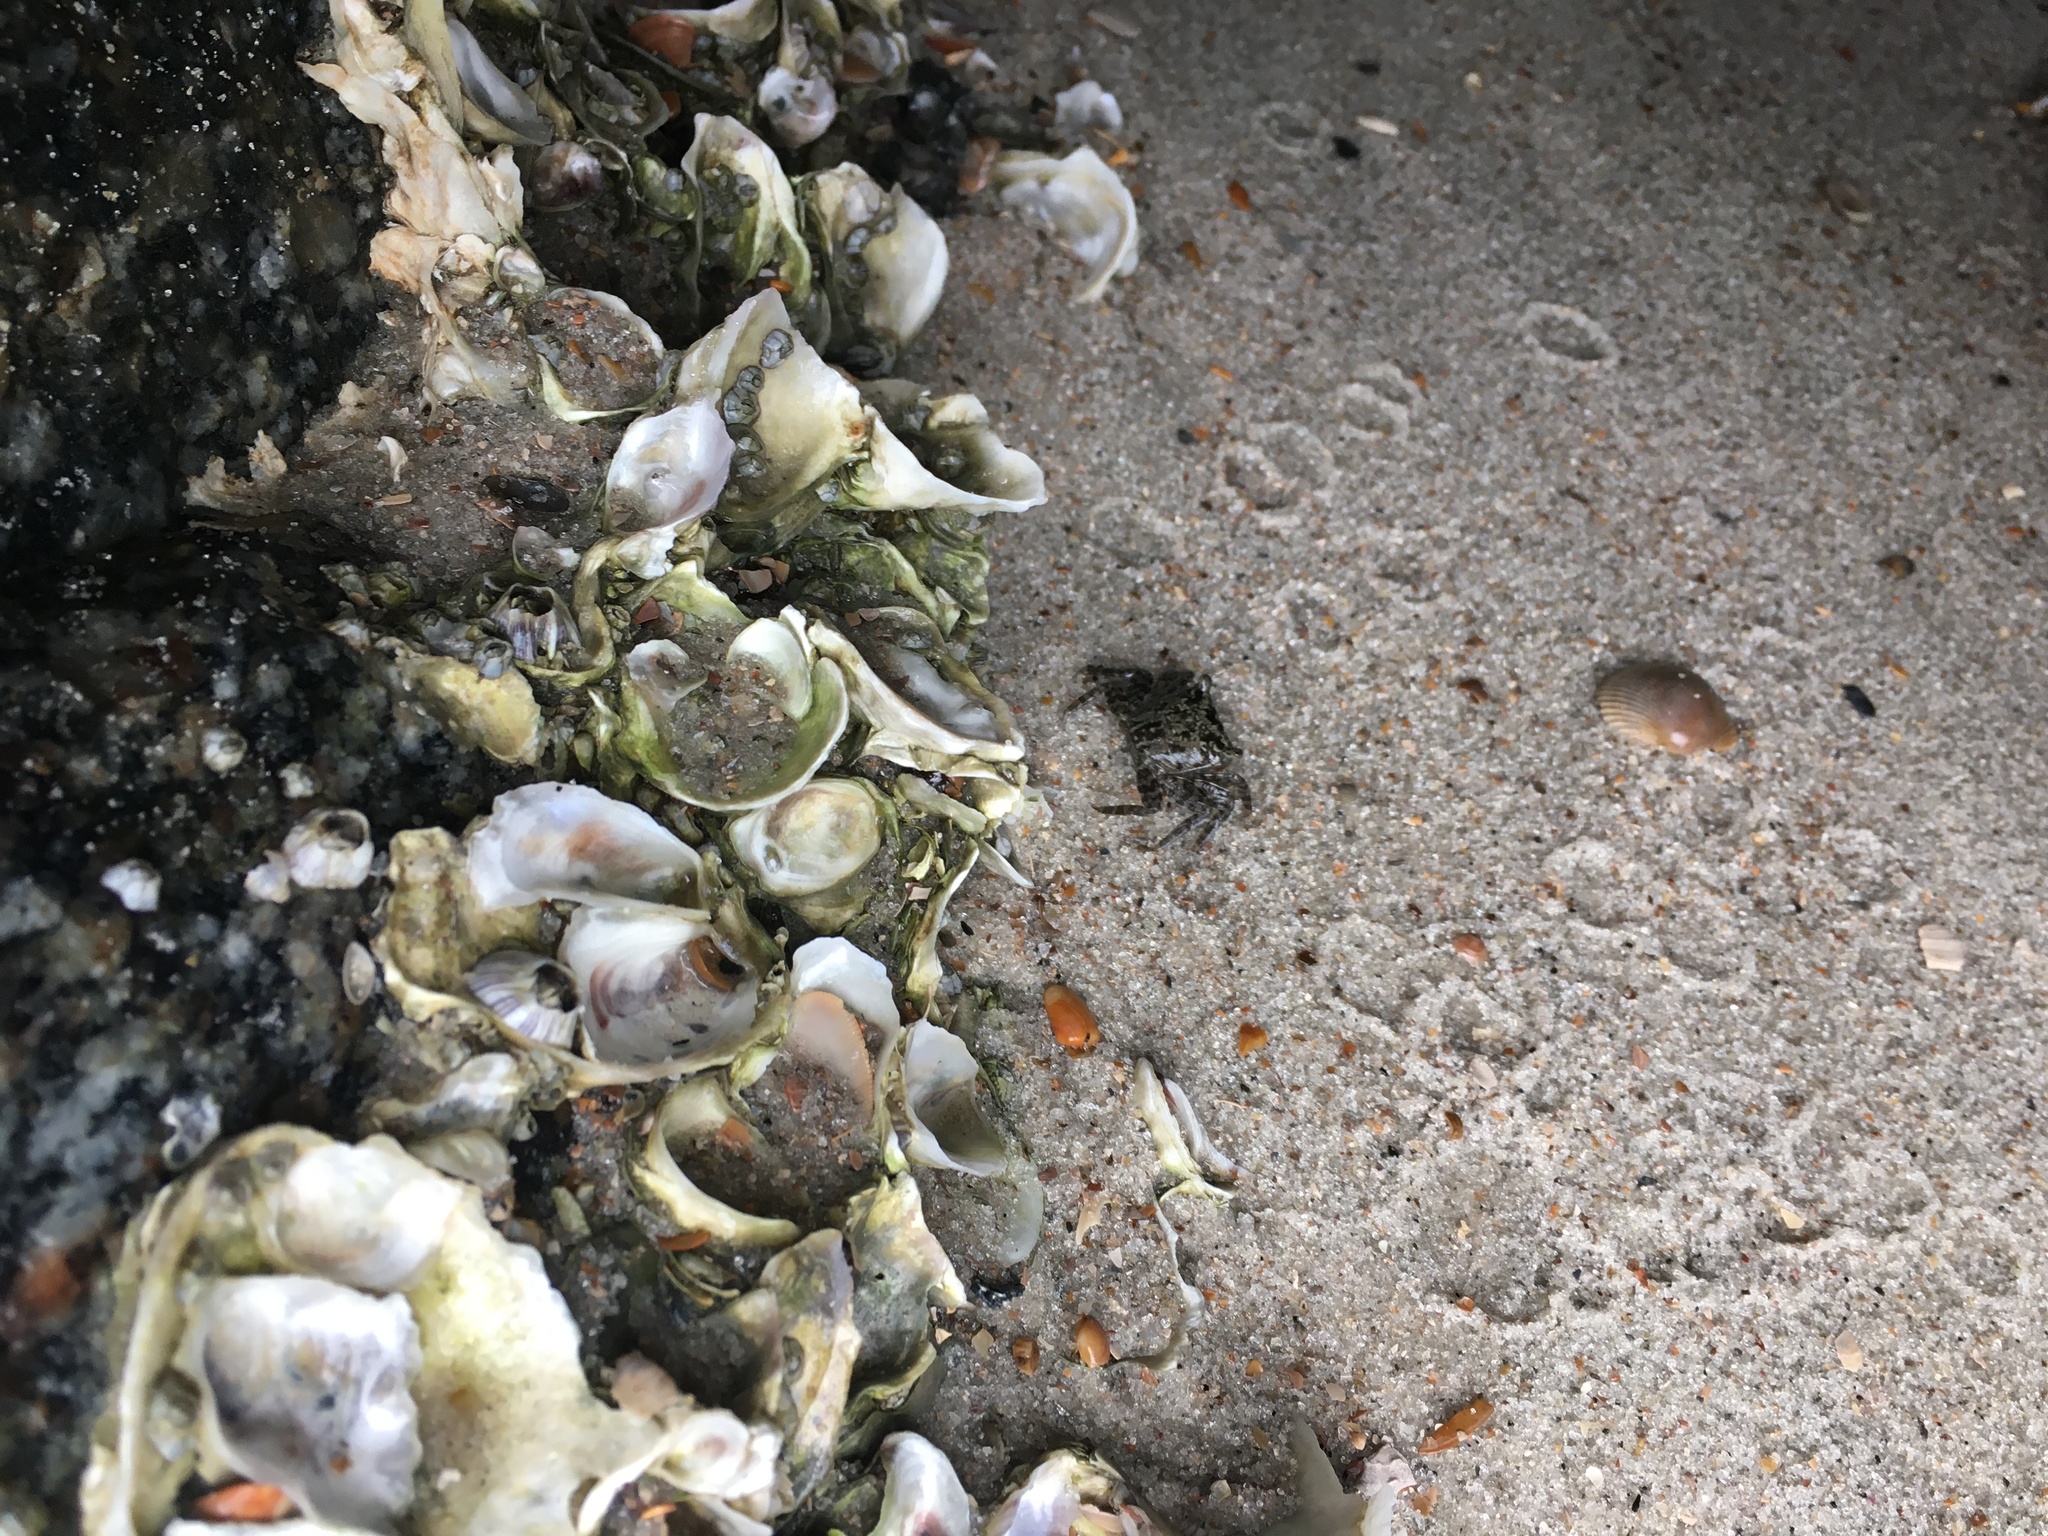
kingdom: Animalia
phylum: Arthropoda
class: Malacostraca
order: Decapoda
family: Sesarmidae
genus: Armases
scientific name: Armases cinereum
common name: Squareback marsh crab
